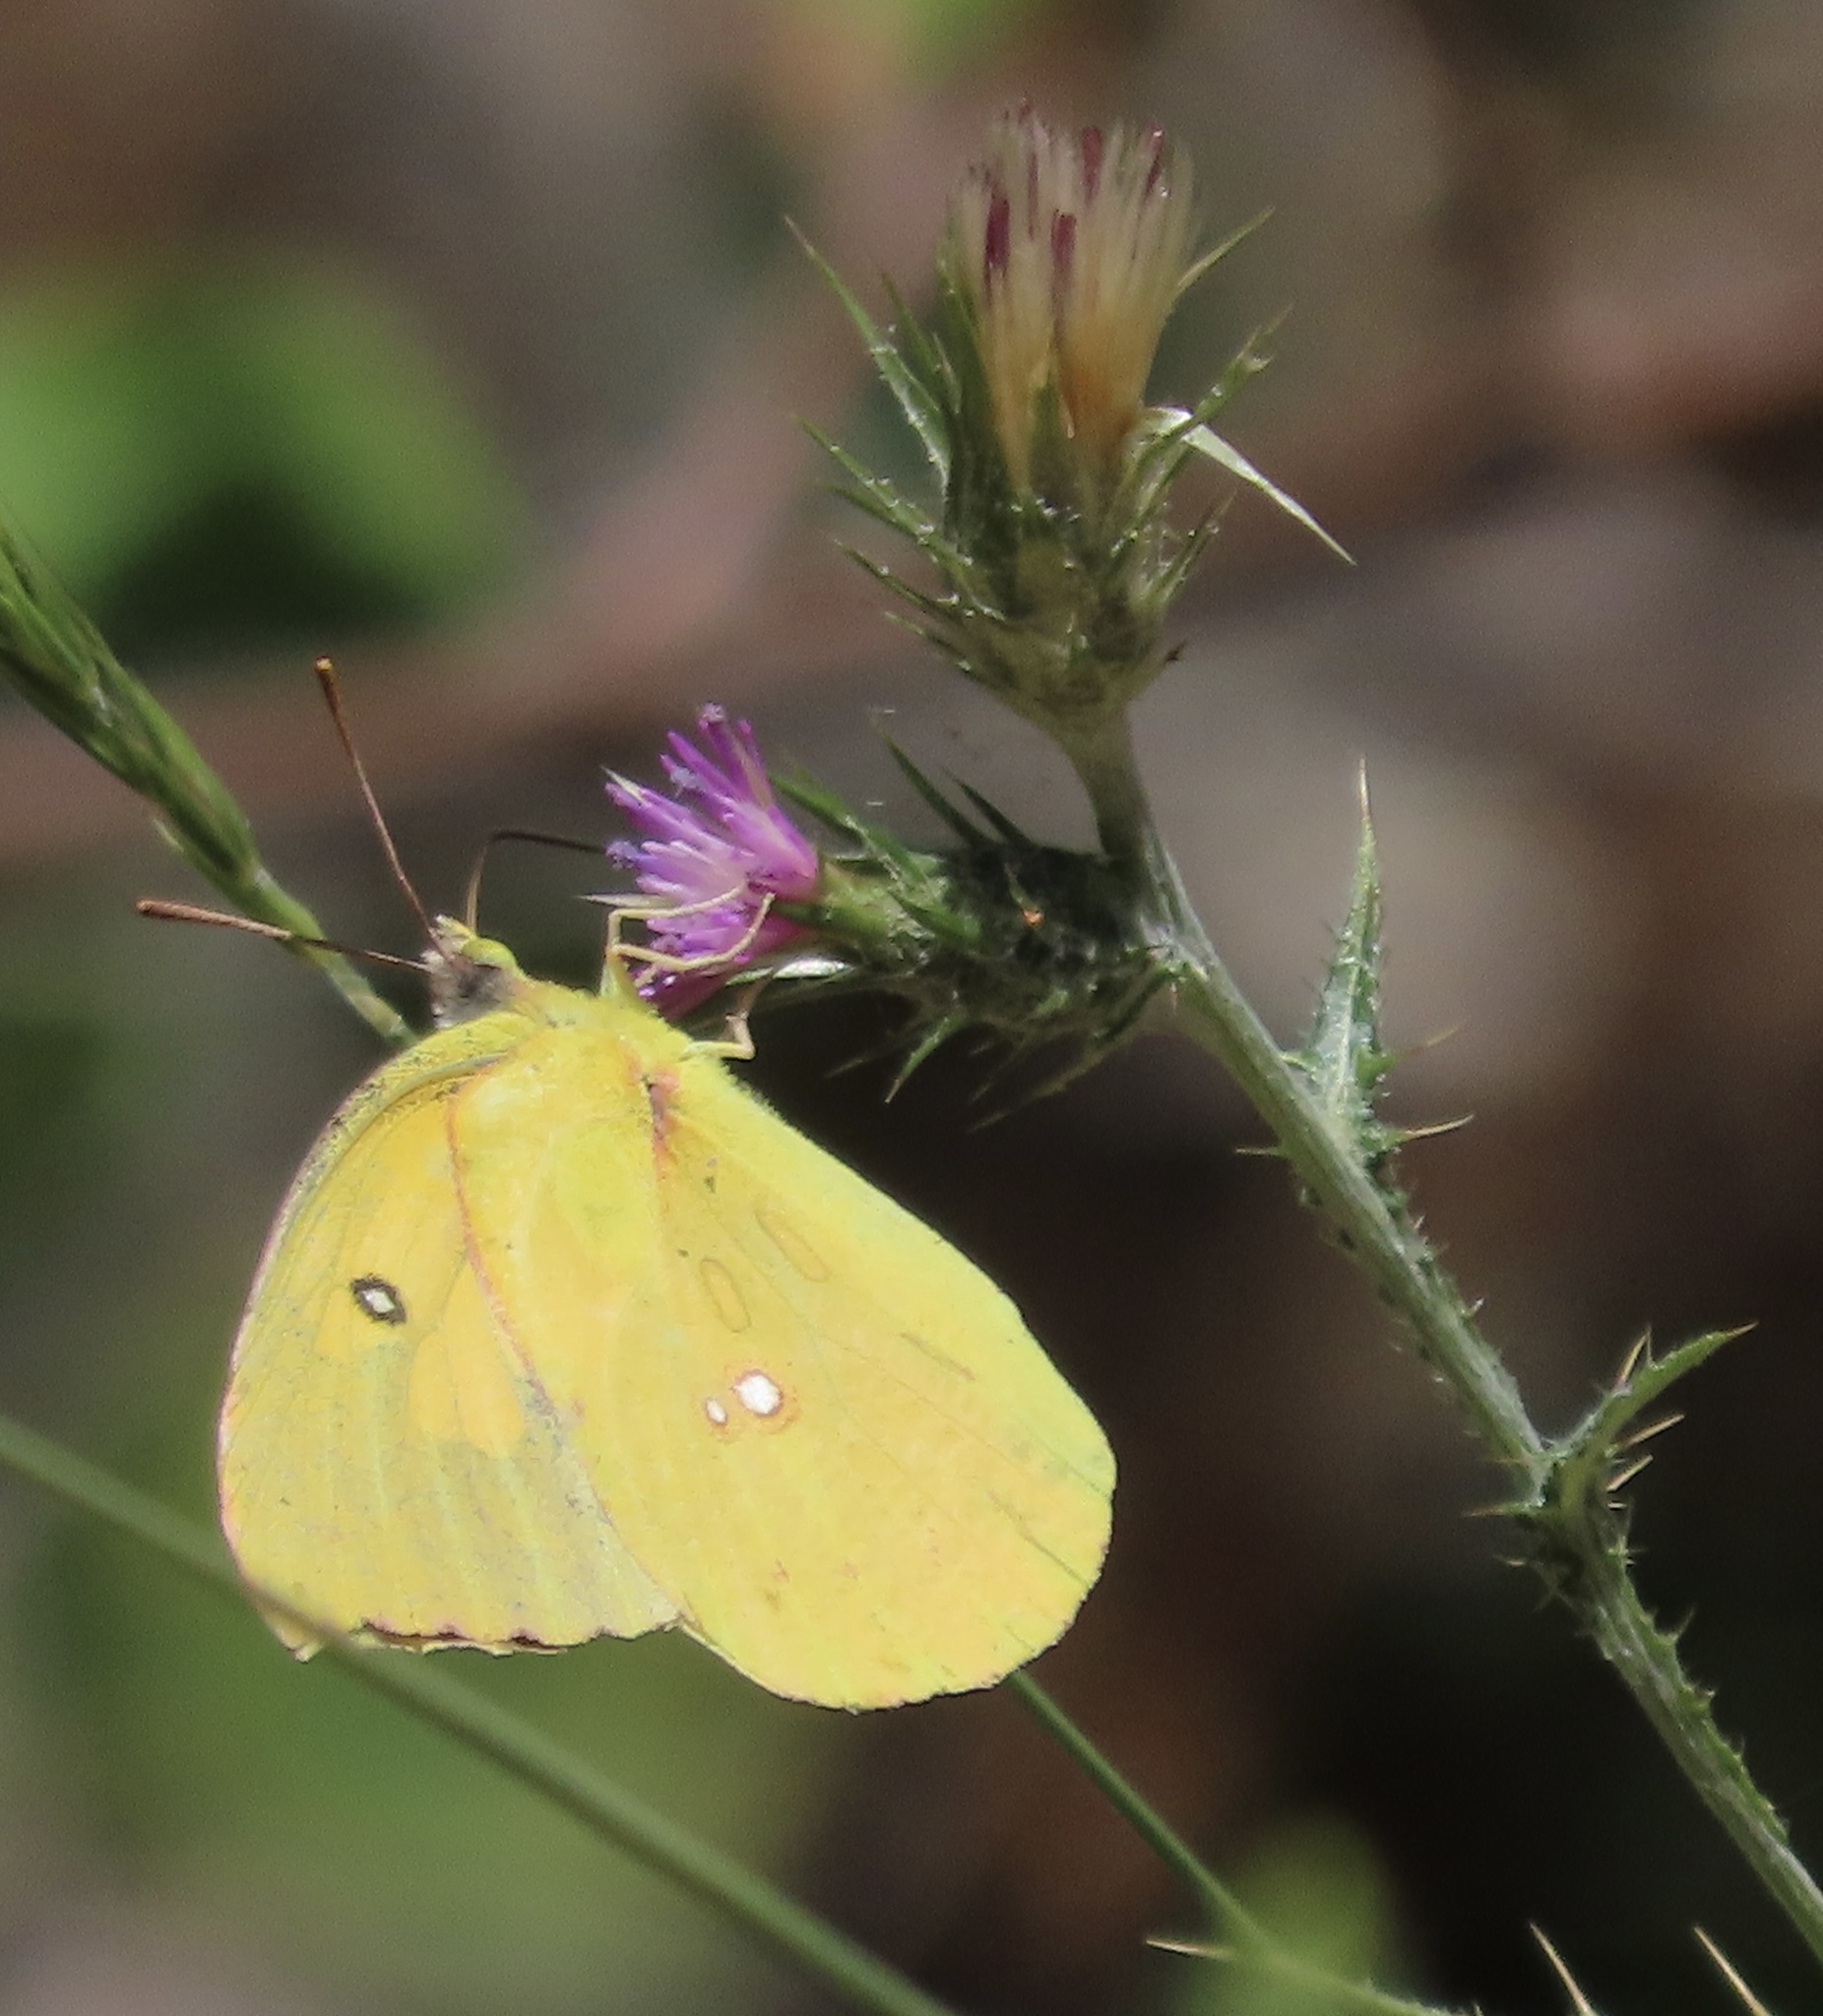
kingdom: Animalia
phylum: Arthropoda
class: Insecta
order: Lepidoptera
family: Pieridae
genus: Zerene
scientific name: Zerene eurydice
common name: California dogface
